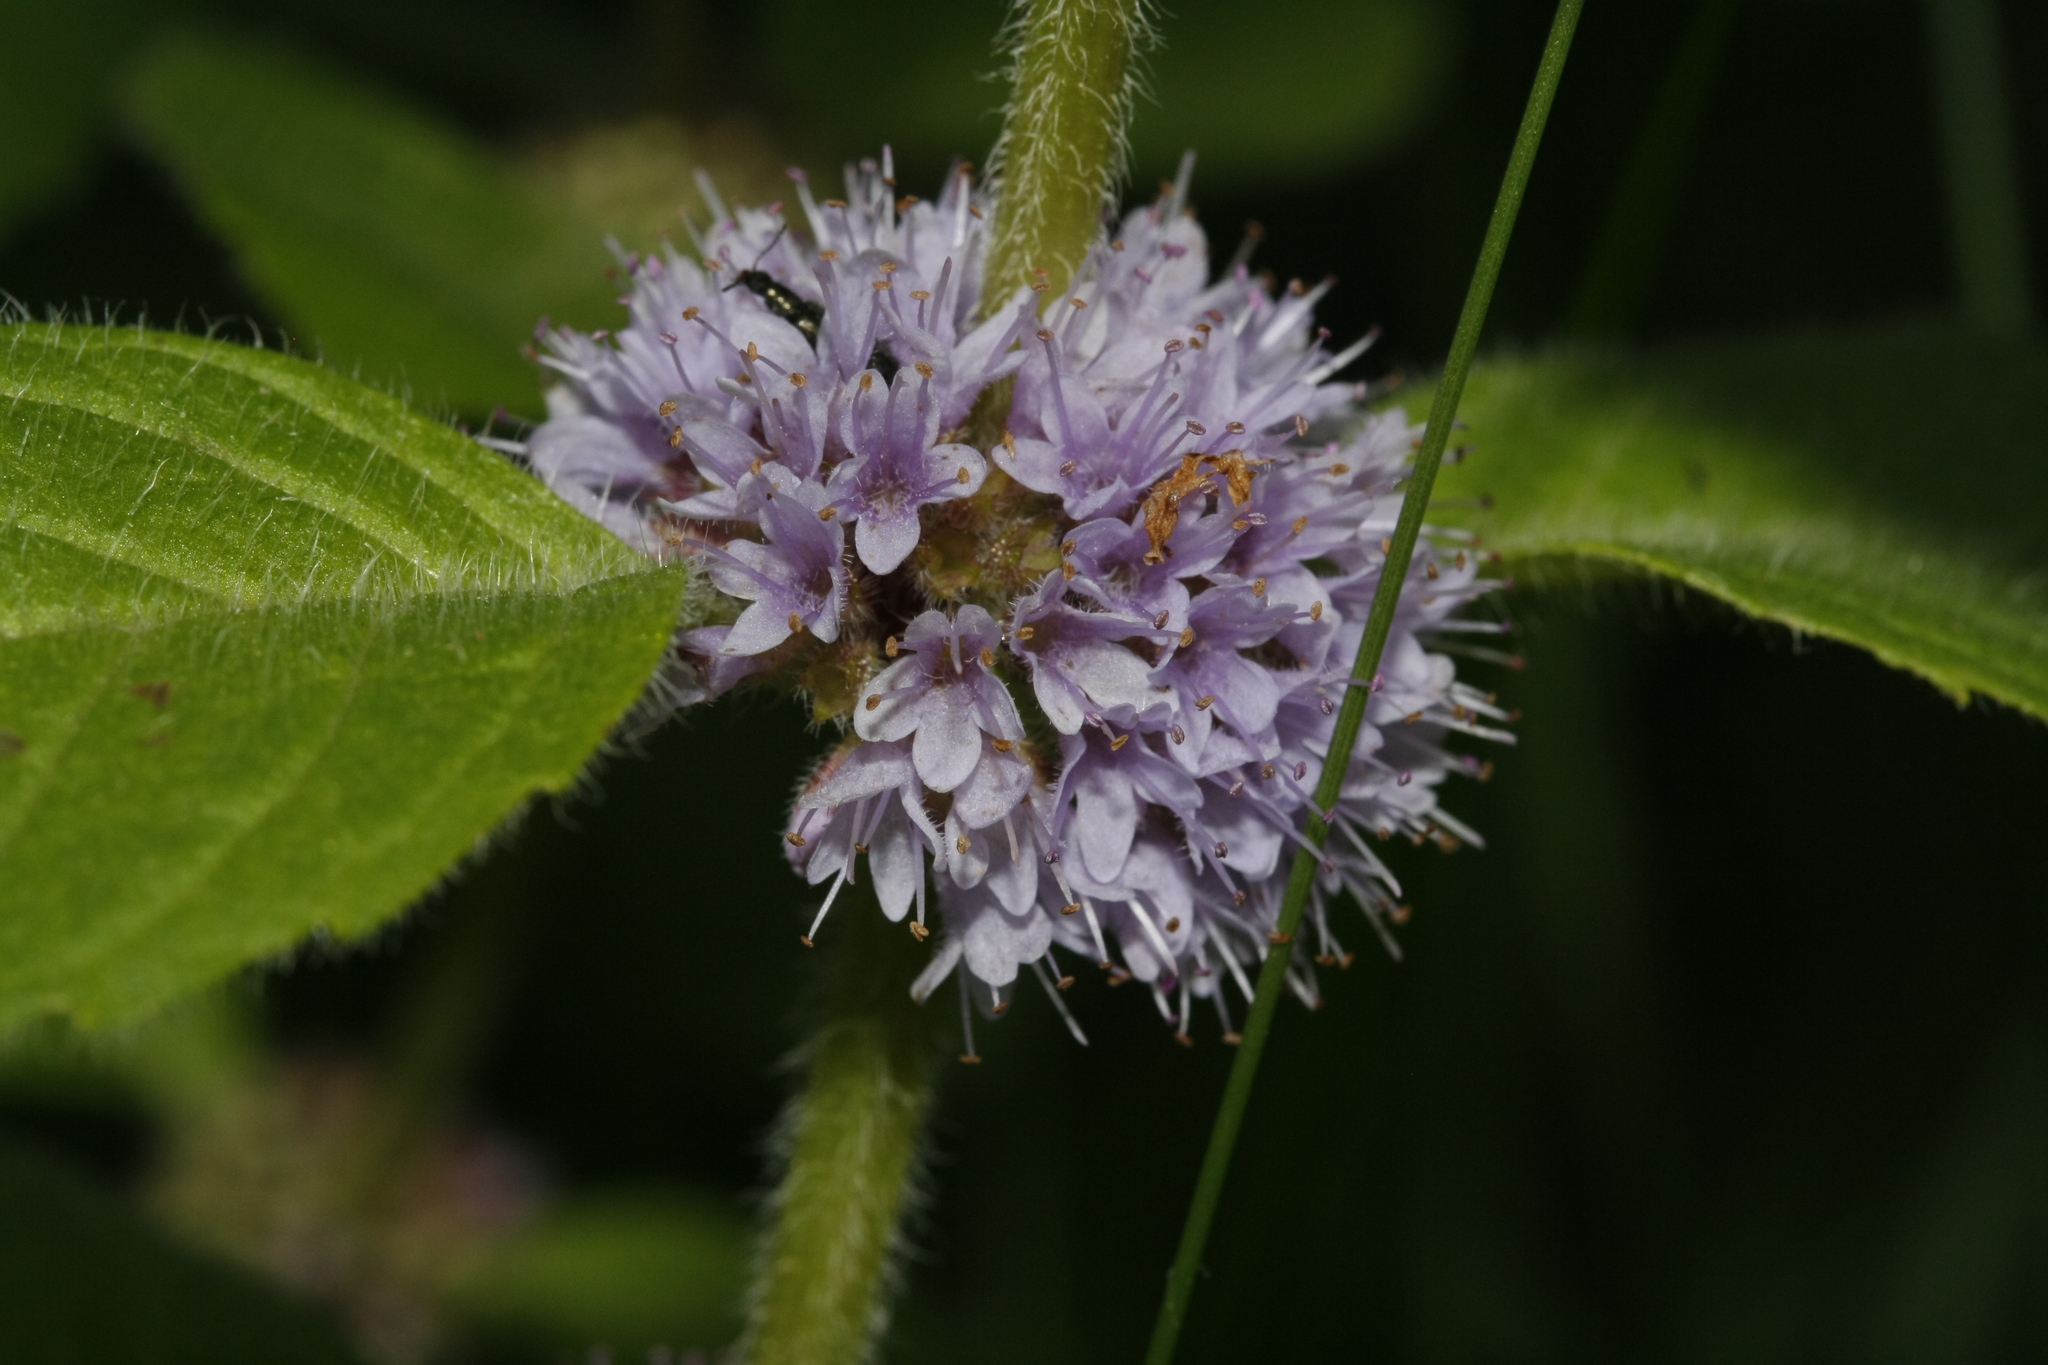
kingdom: Plantae
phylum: Tracheophyta
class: Magnoliopsida
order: Lamiales
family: Lamiaceae
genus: Mentha
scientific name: Mentha arvensis
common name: Corn mint
